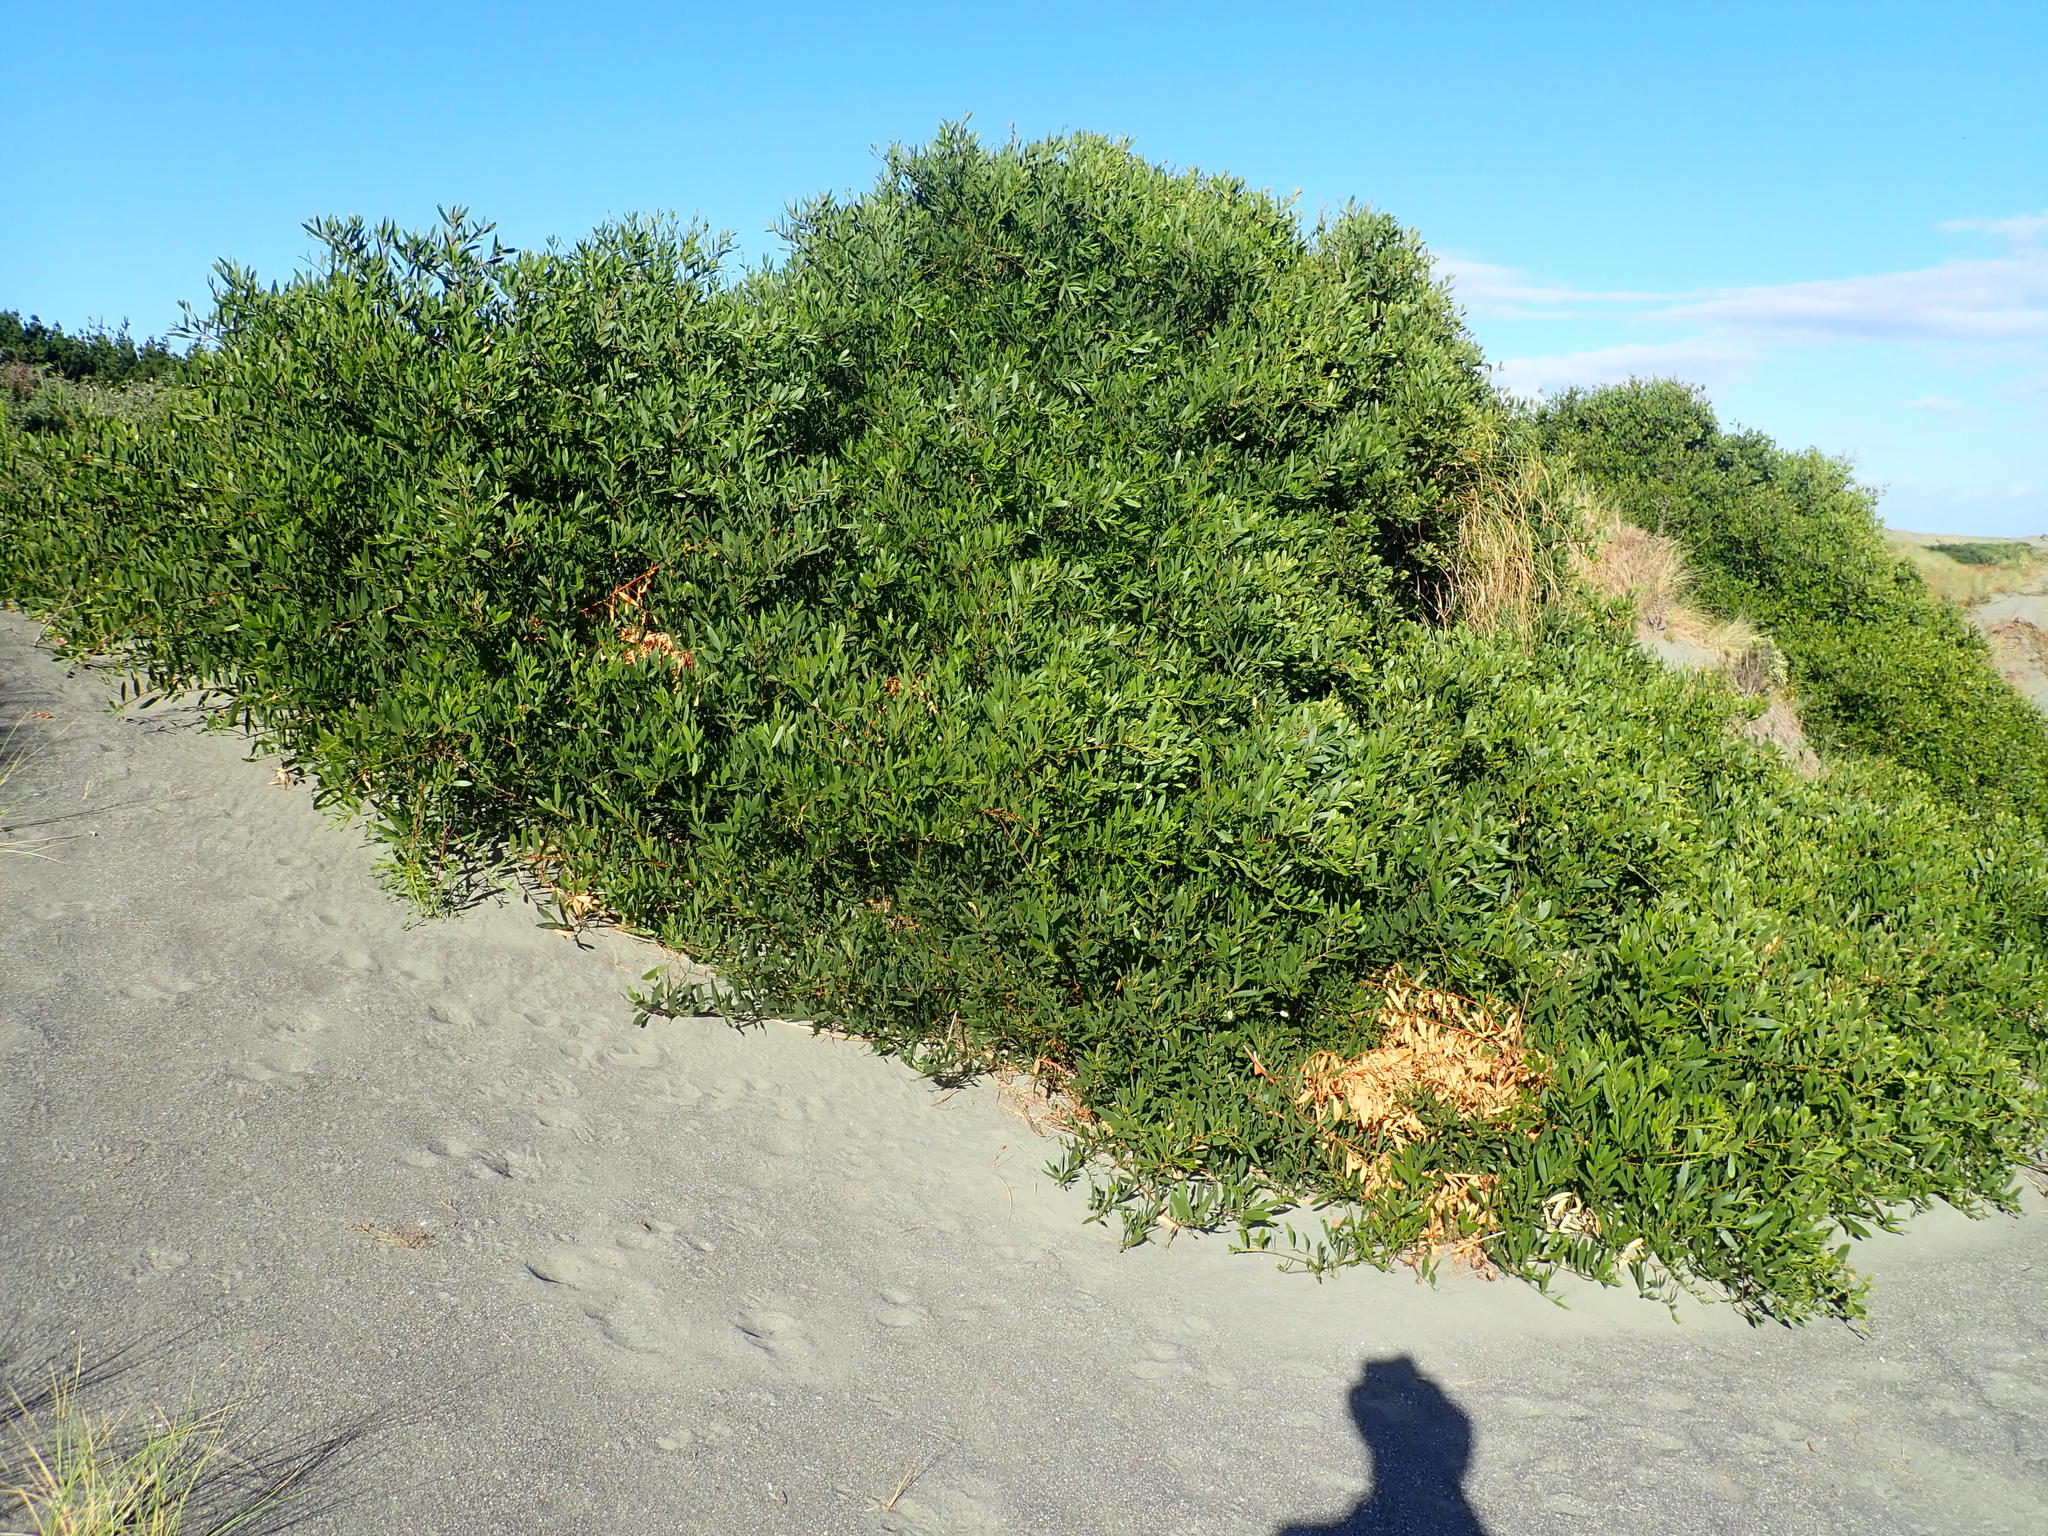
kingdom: Plantae
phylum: Tracheophyta
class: Magnoliopsida
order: Fabales
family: Fabaceae
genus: Acacia
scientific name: Acacia longifolia
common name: Sydney golden wattle
